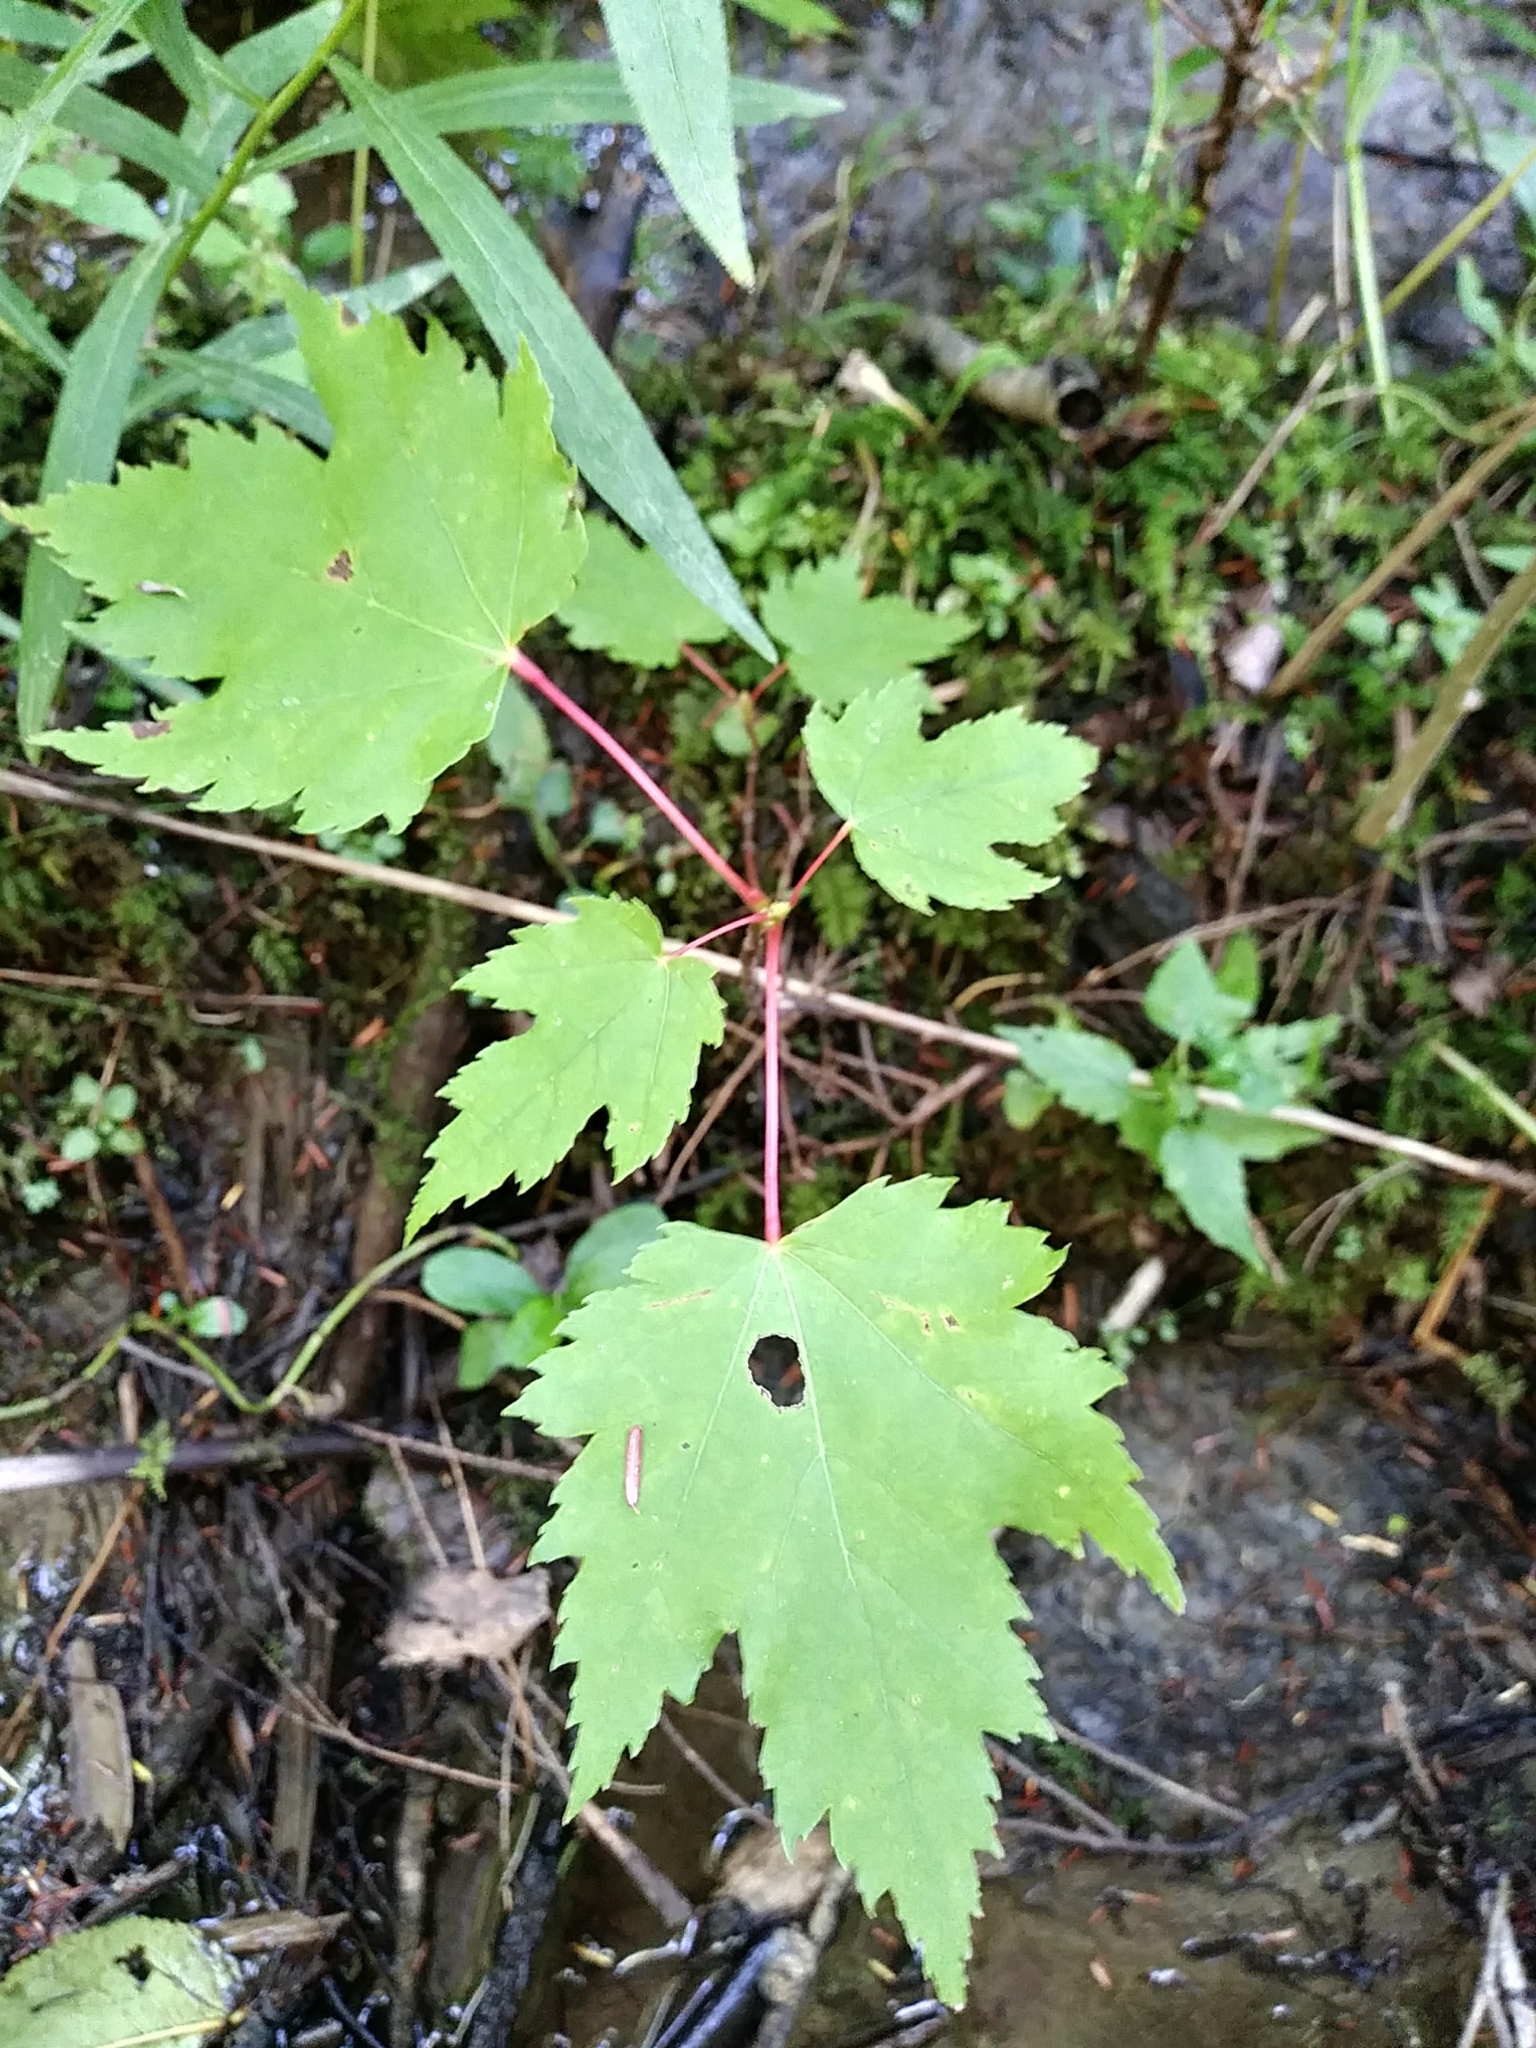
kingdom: Plantae
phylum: Tracheophyta
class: Magnoliopsida
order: Sapindales
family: Sapindaceae
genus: Acer
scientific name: Acer rubrum
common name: Red maple
